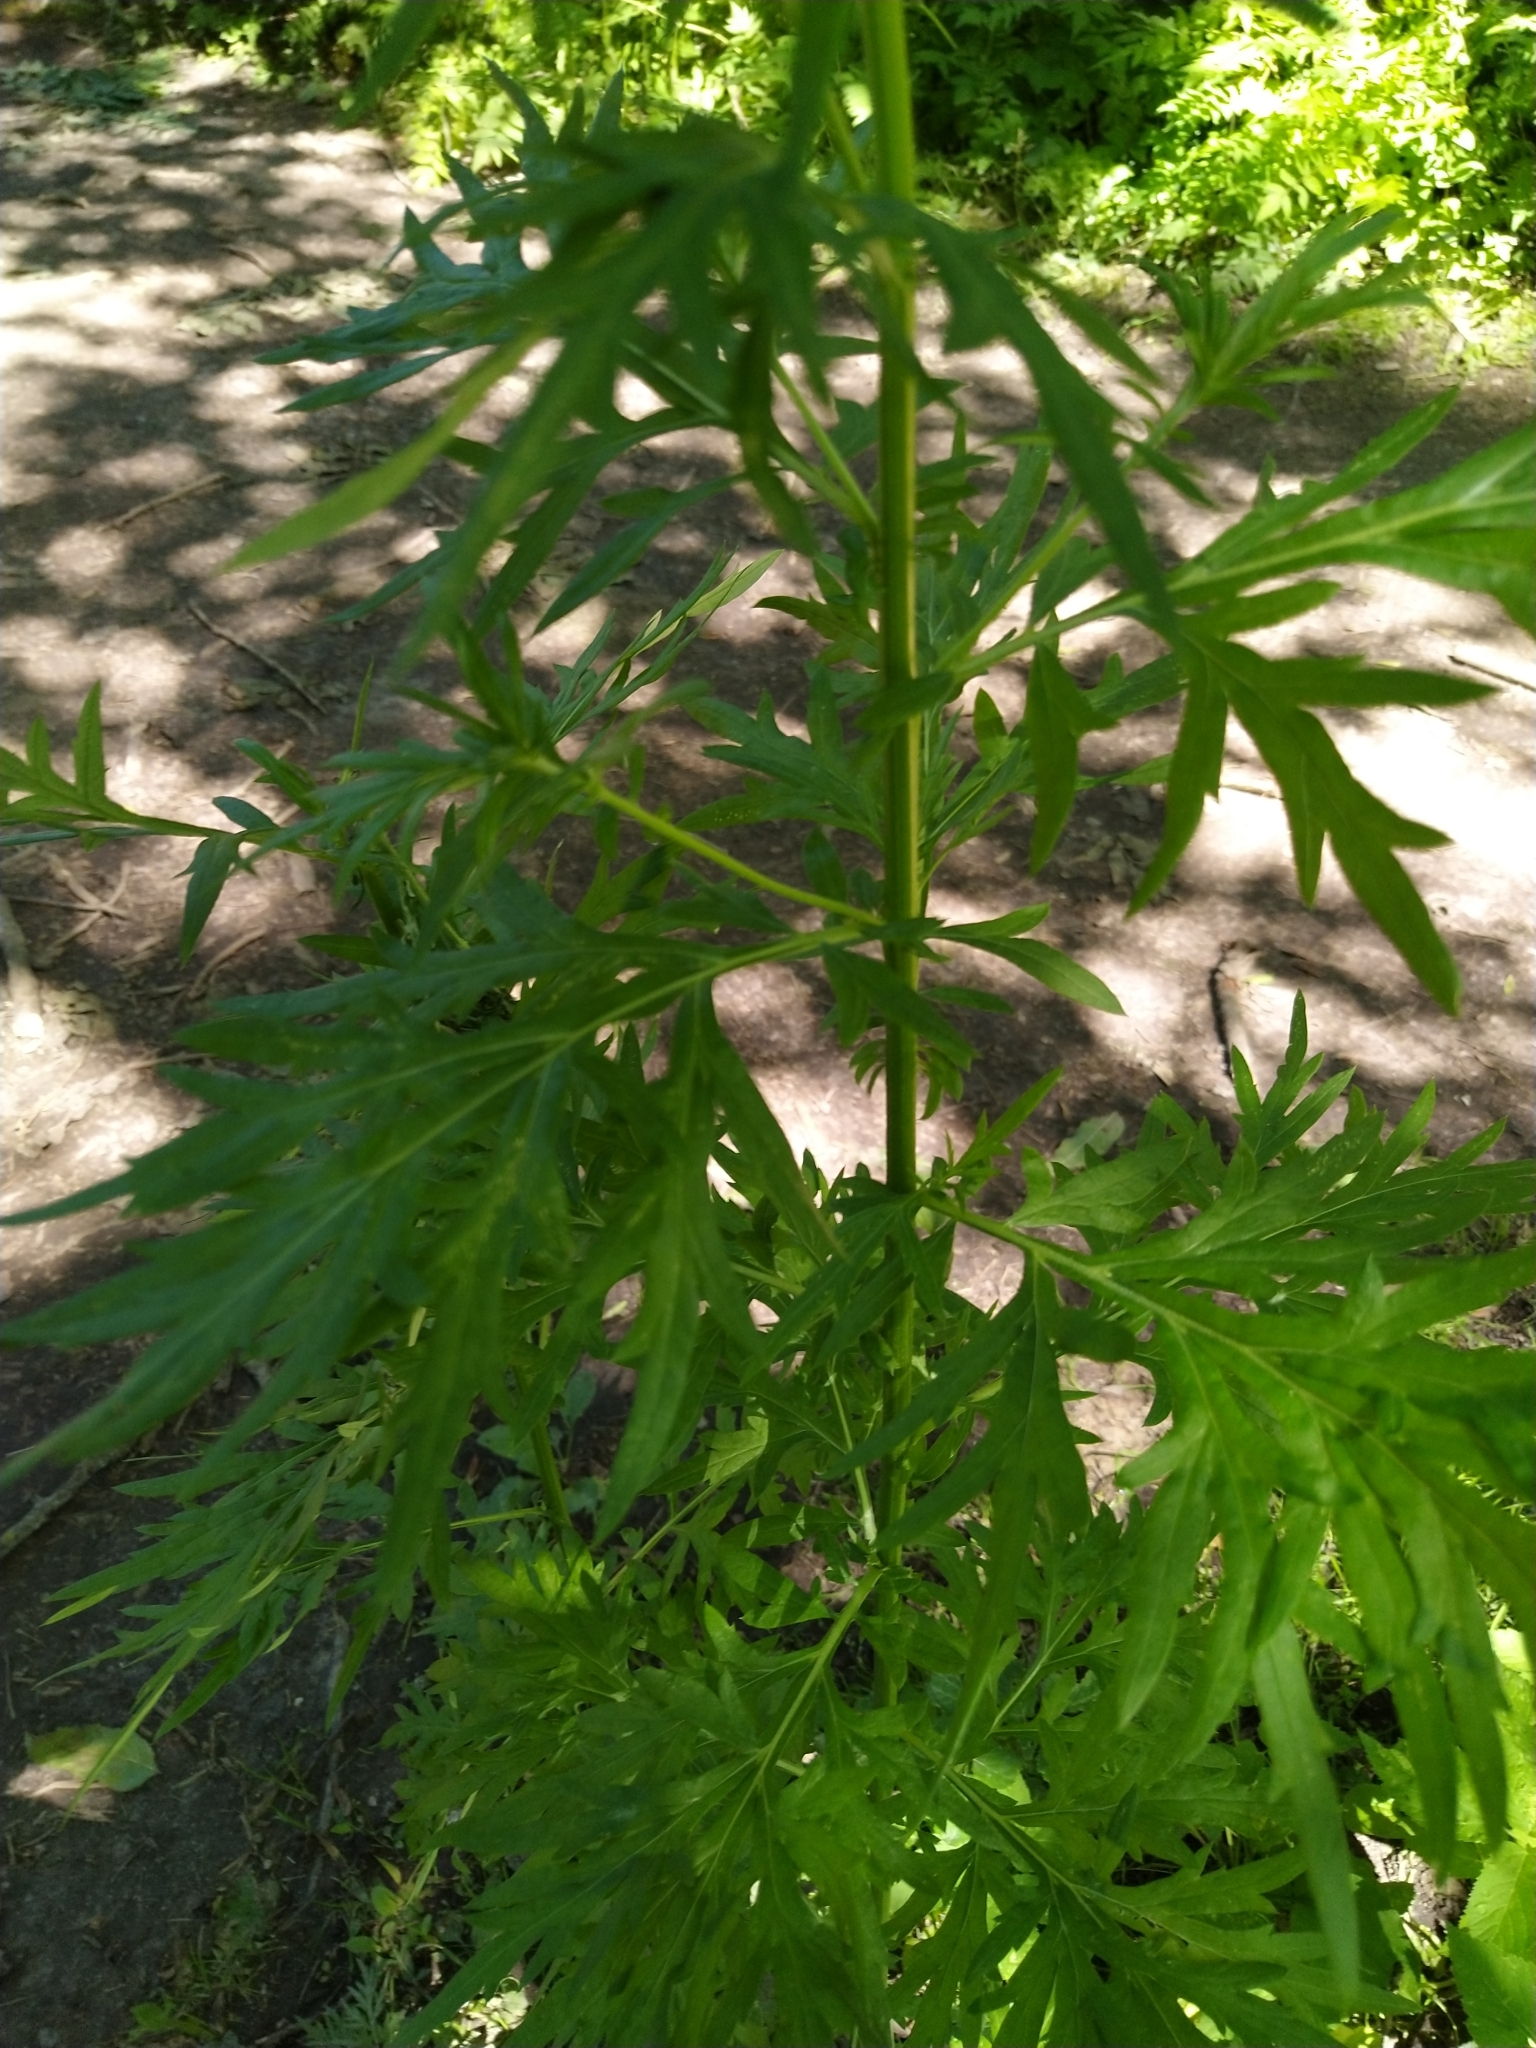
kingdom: Plantae
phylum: Tracheophyta
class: Magnoliopsida
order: Asterales
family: Asteraceae
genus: Artemisia
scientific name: Artemisia vulgaris
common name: Mugwort
